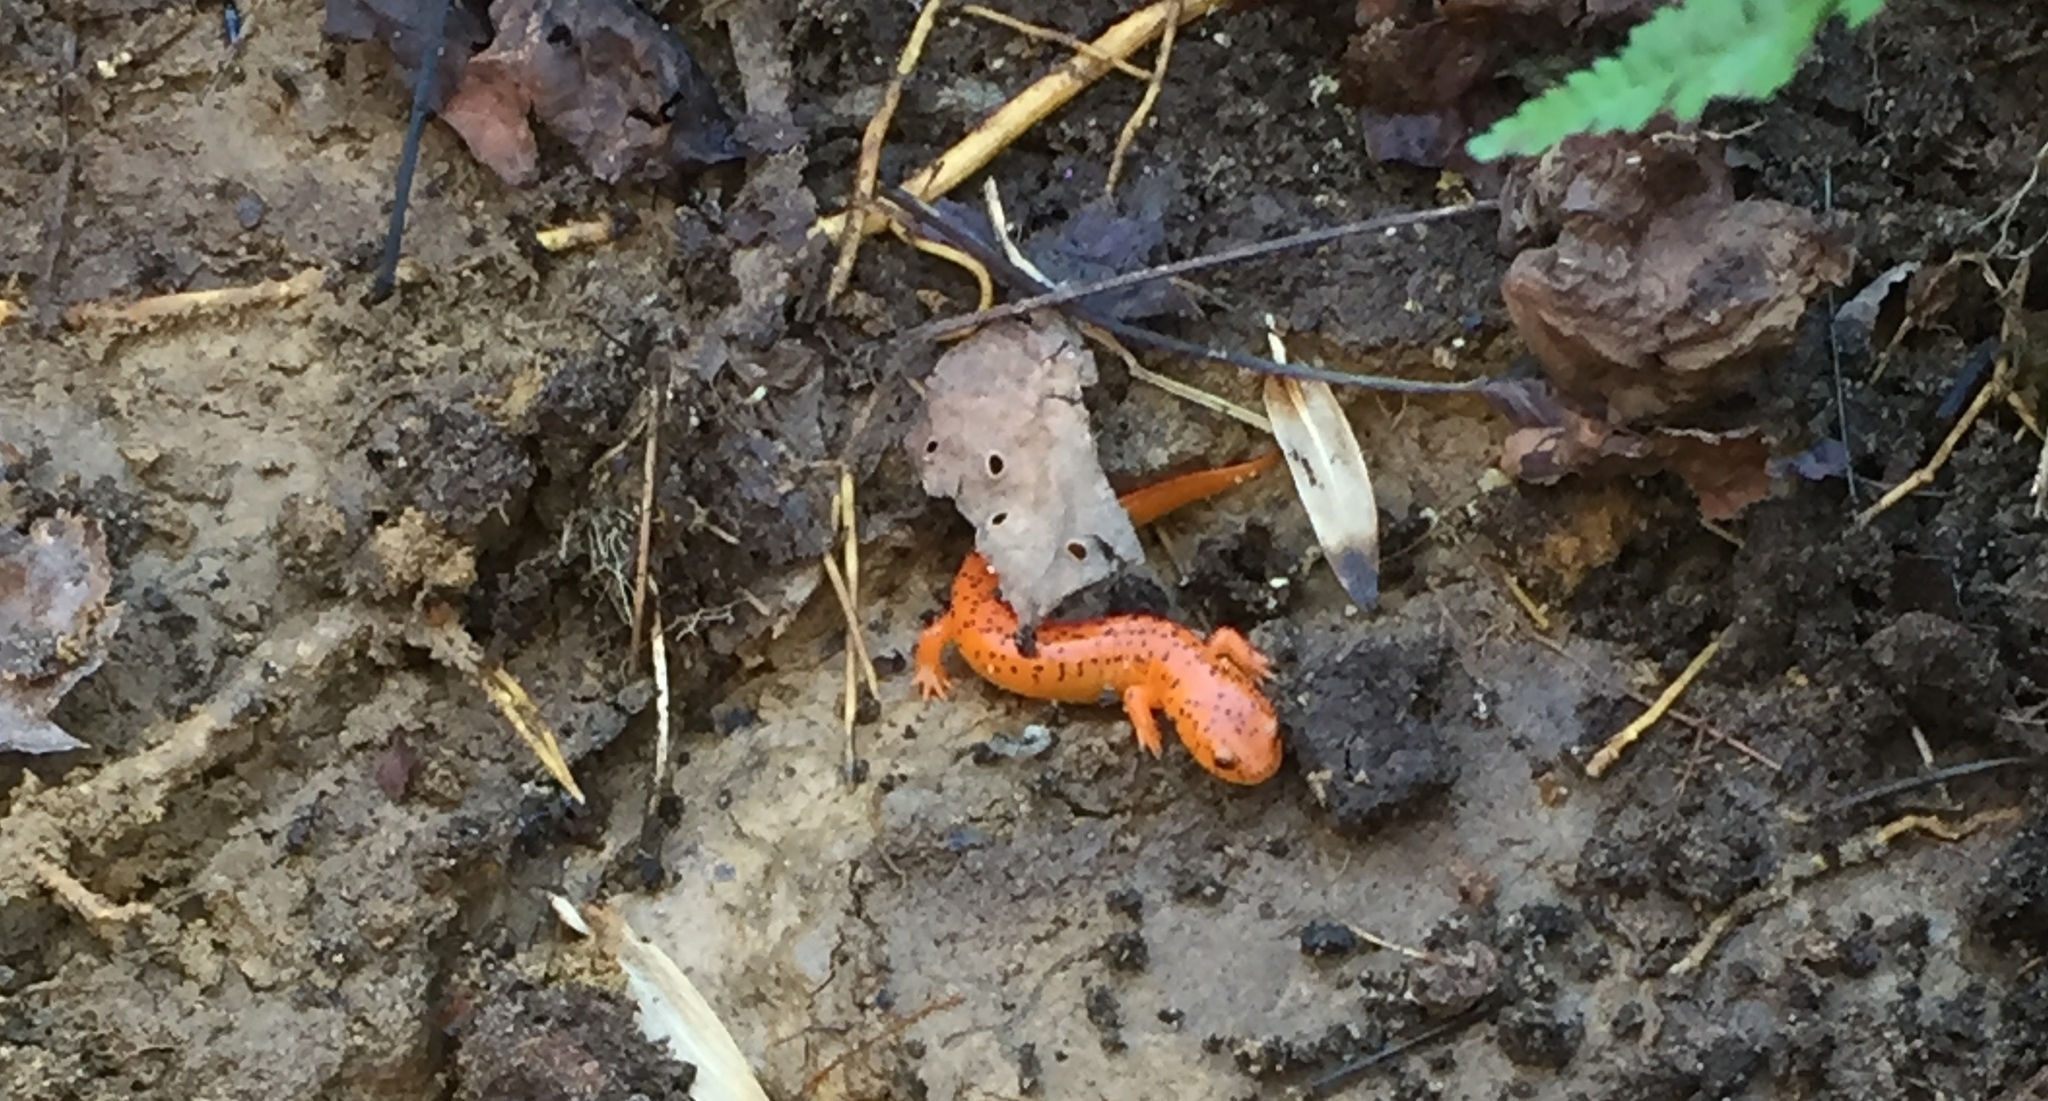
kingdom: Animalia
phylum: Chordata
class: Amphibia
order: Caudata
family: Plethodontidae
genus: Pseudotriton
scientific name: Pseudotriton ruber
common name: Red salamander
